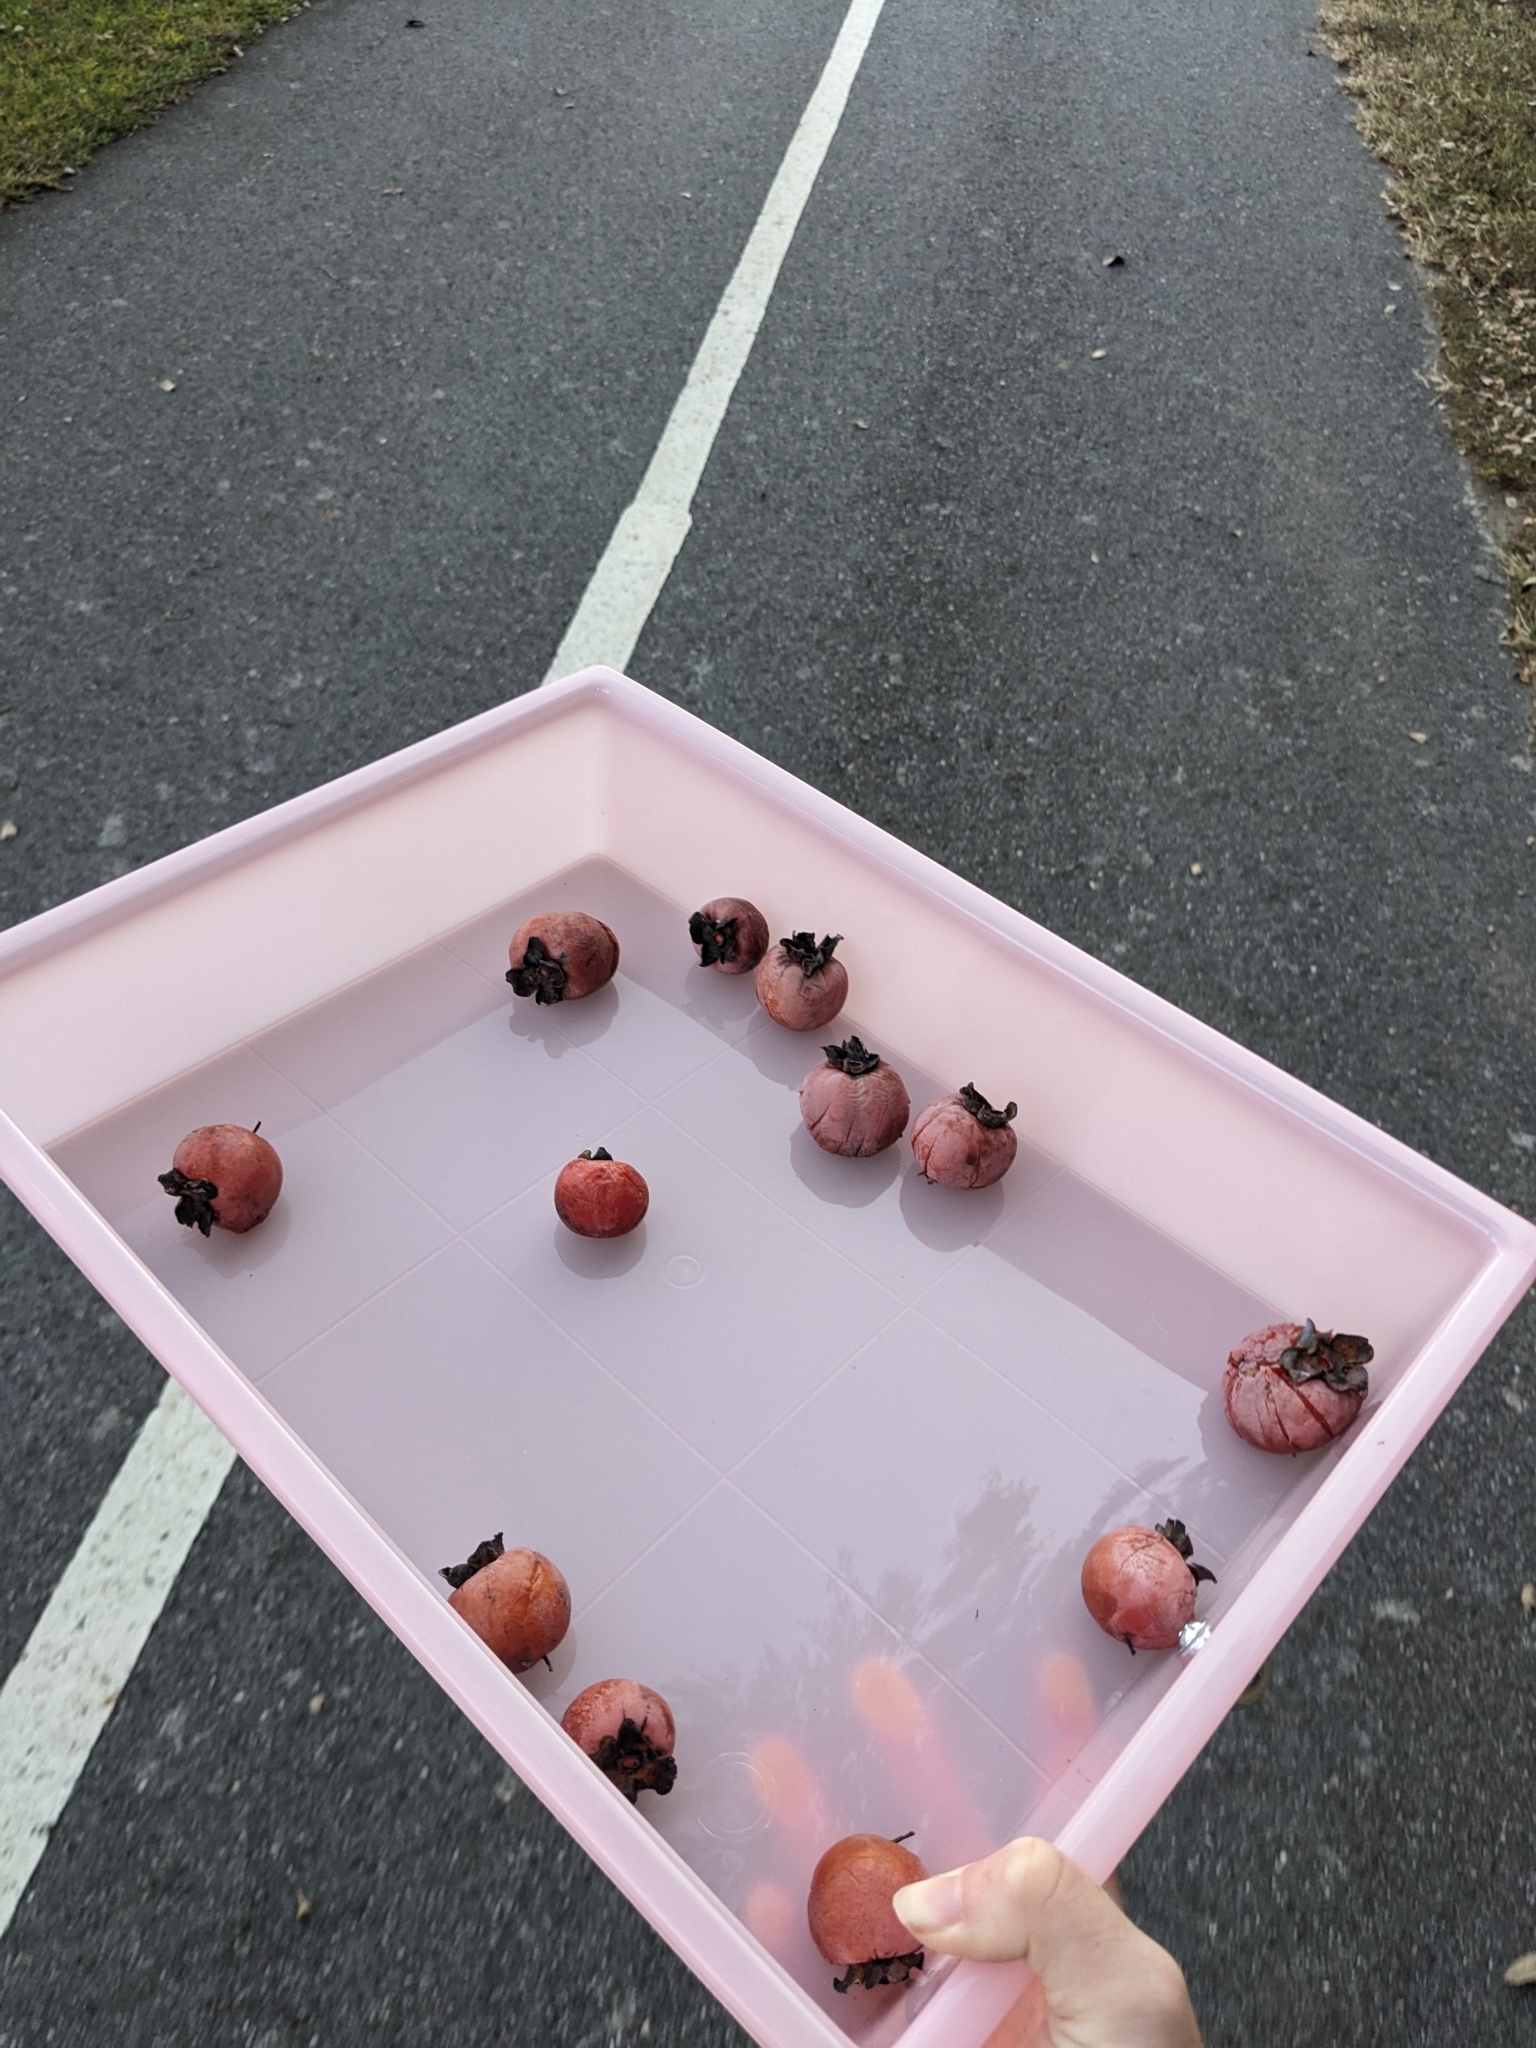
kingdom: Plantae
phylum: Tracheophyta
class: Magnoliopsida
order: Ericales
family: Ebenaceae
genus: Diospyros
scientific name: Diospyros virginiana
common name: Persimmon
